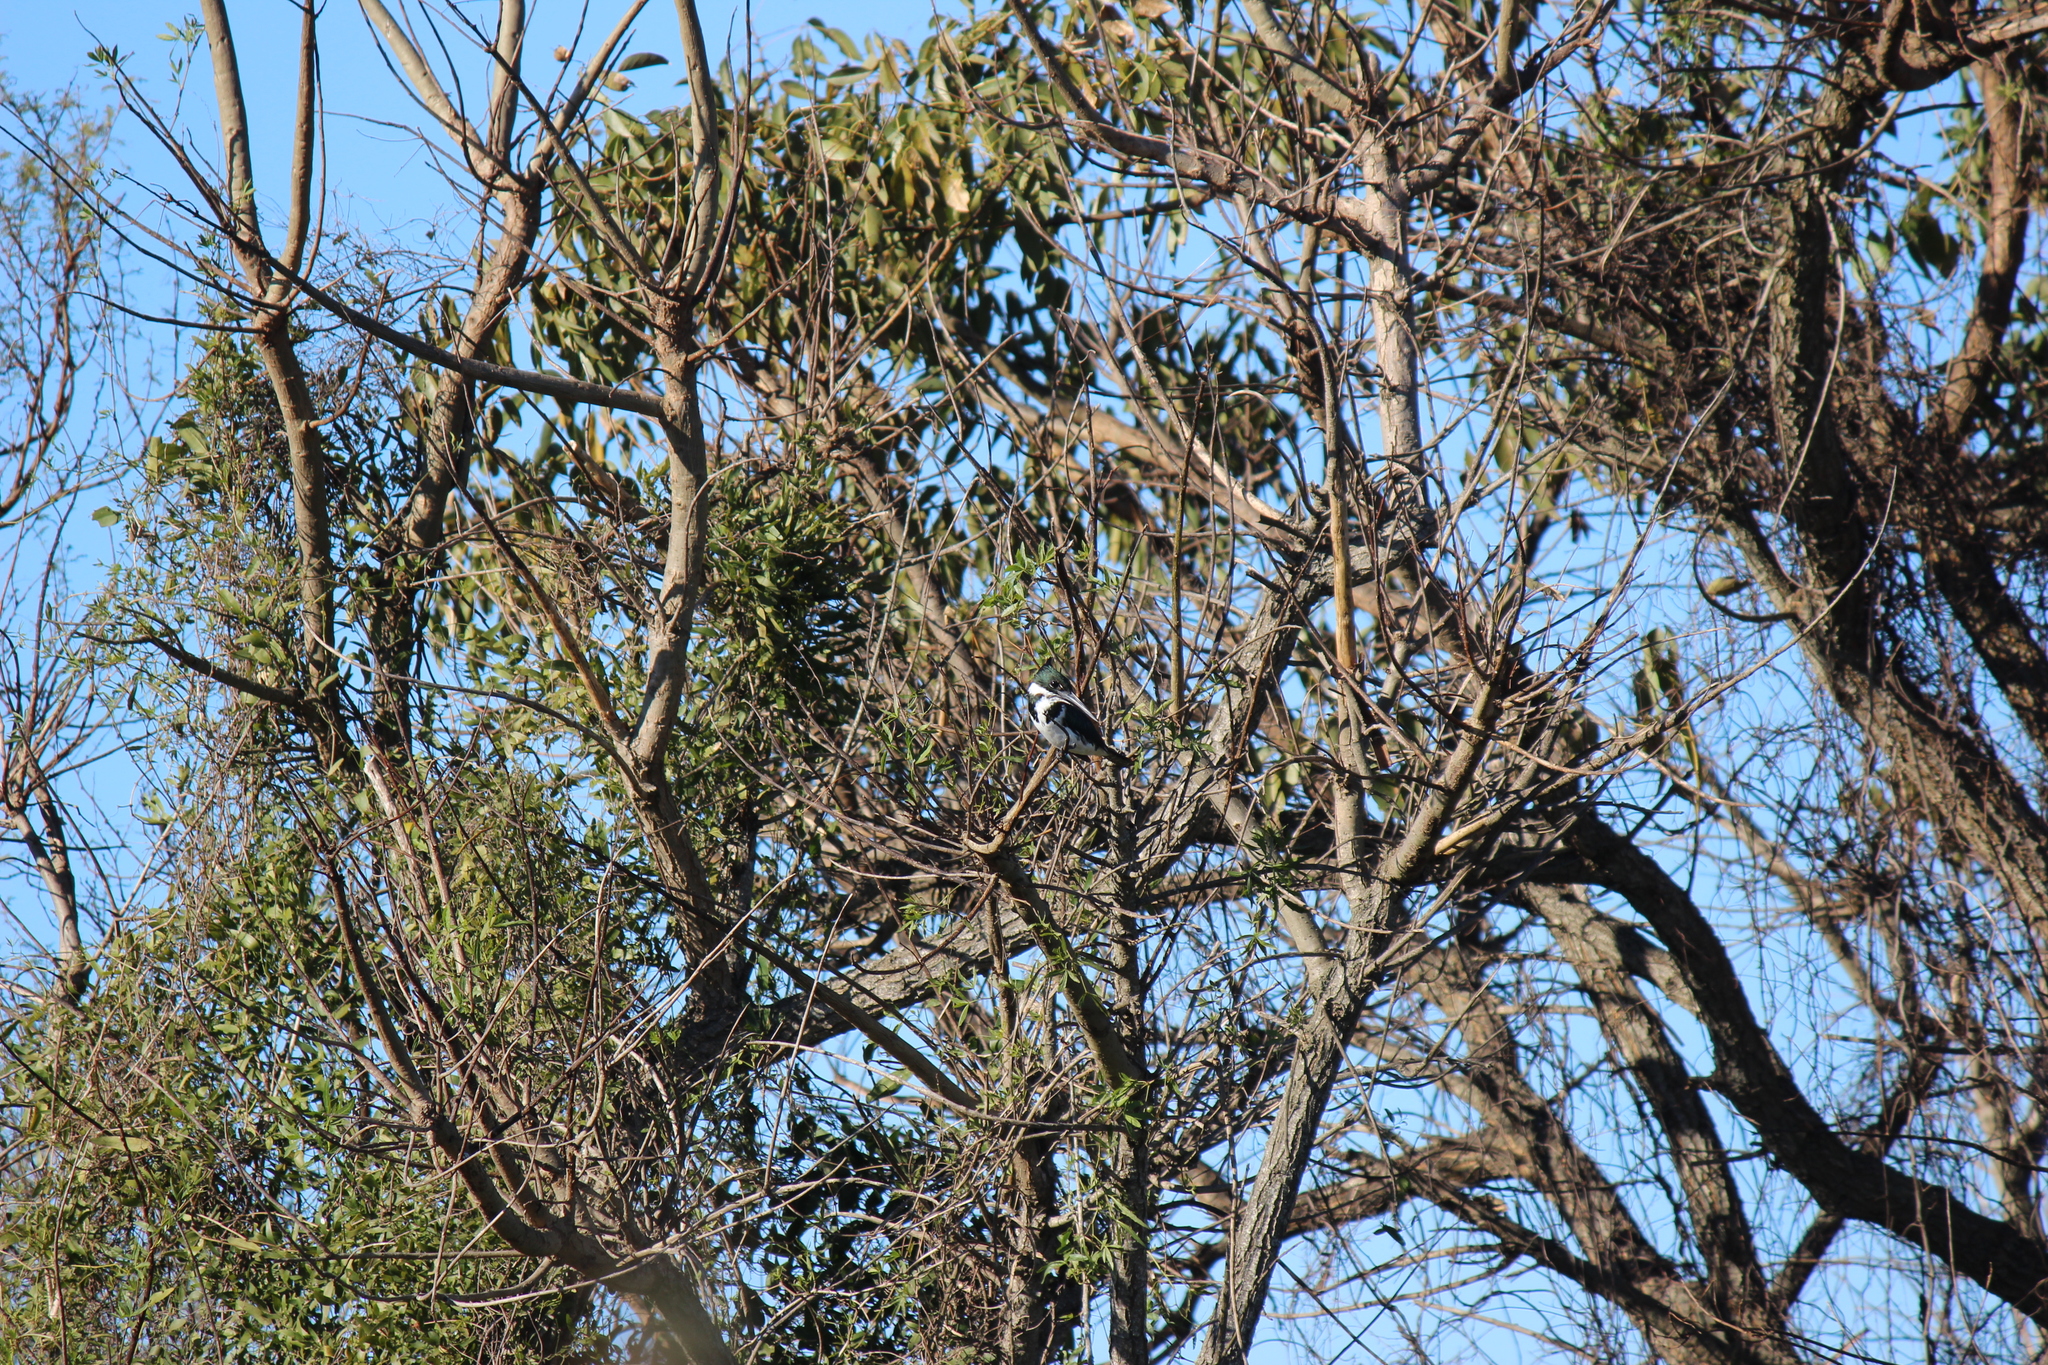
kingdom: Animalia
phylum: Chordata
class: Aves
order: Coraciiformes
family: Alcedinidae
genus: Chloroceryle
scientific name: Chloroceryle amazona
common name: Amazon kingfisher
